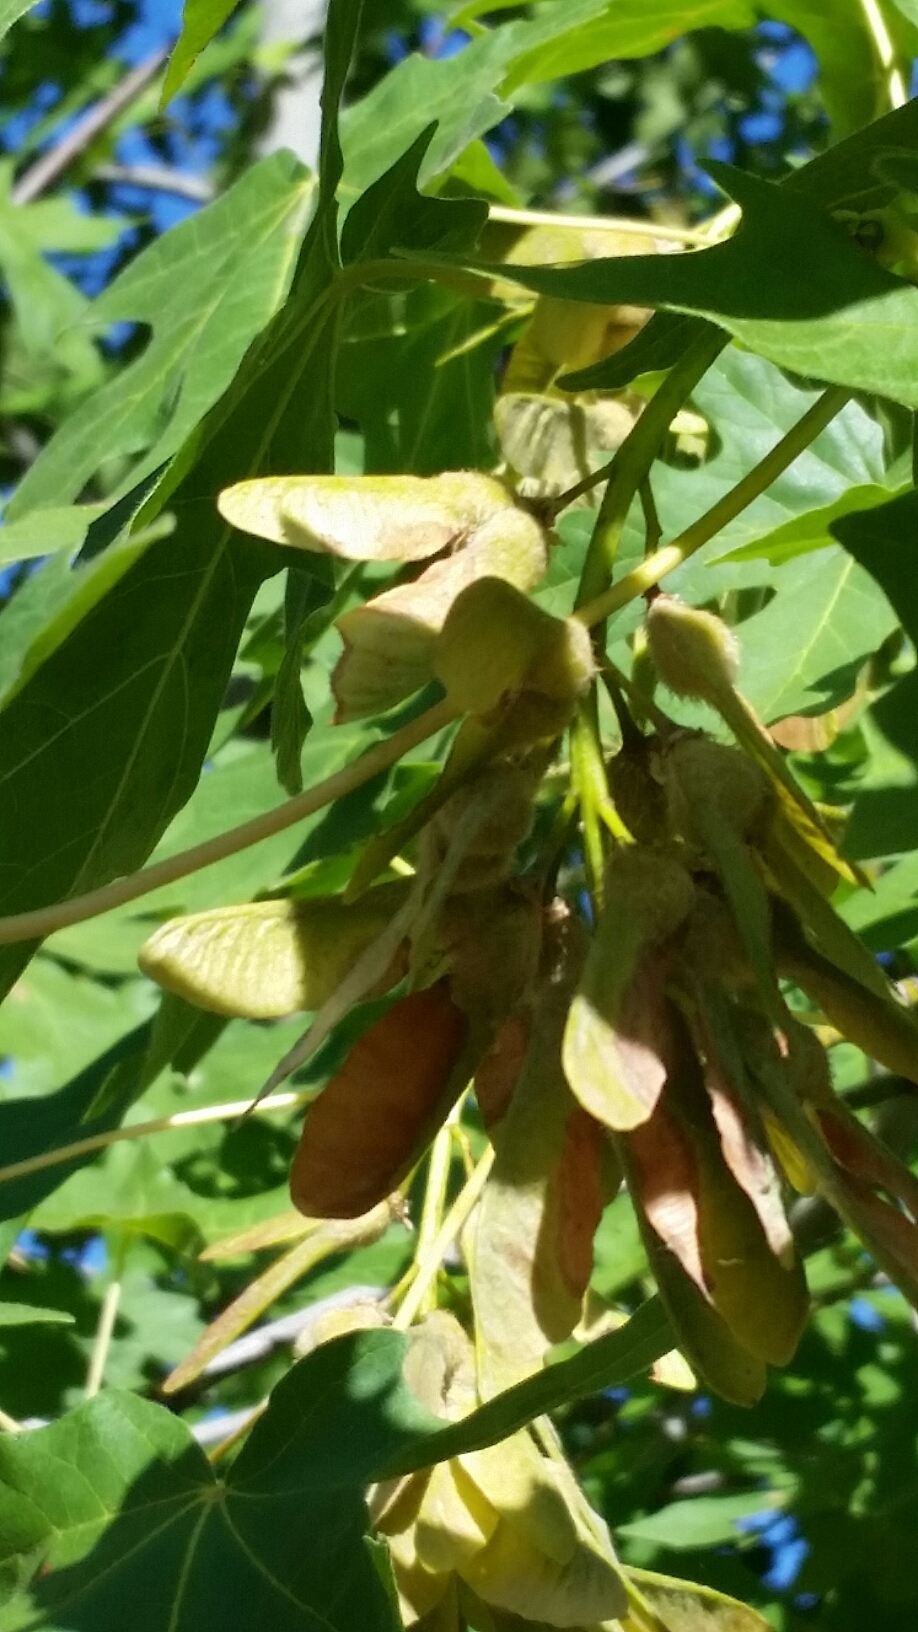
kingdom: Plantae
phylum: Tracheophyta
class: Magnoliopsida
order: Sapindales
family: Sapindaceae
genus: Acer
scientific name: Acer macrophyllum
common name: Oregon maple
